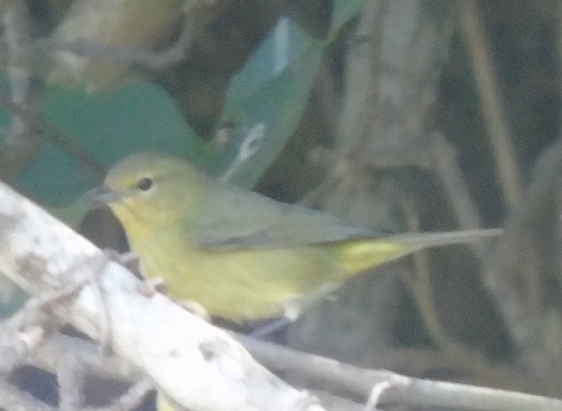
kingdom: Animalia
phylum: Chordata
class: Aves
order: Passeriformes
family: Parulidae
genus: Leiothlypis
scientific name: Leiothlypis celata
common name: Orange-crowned warbler
